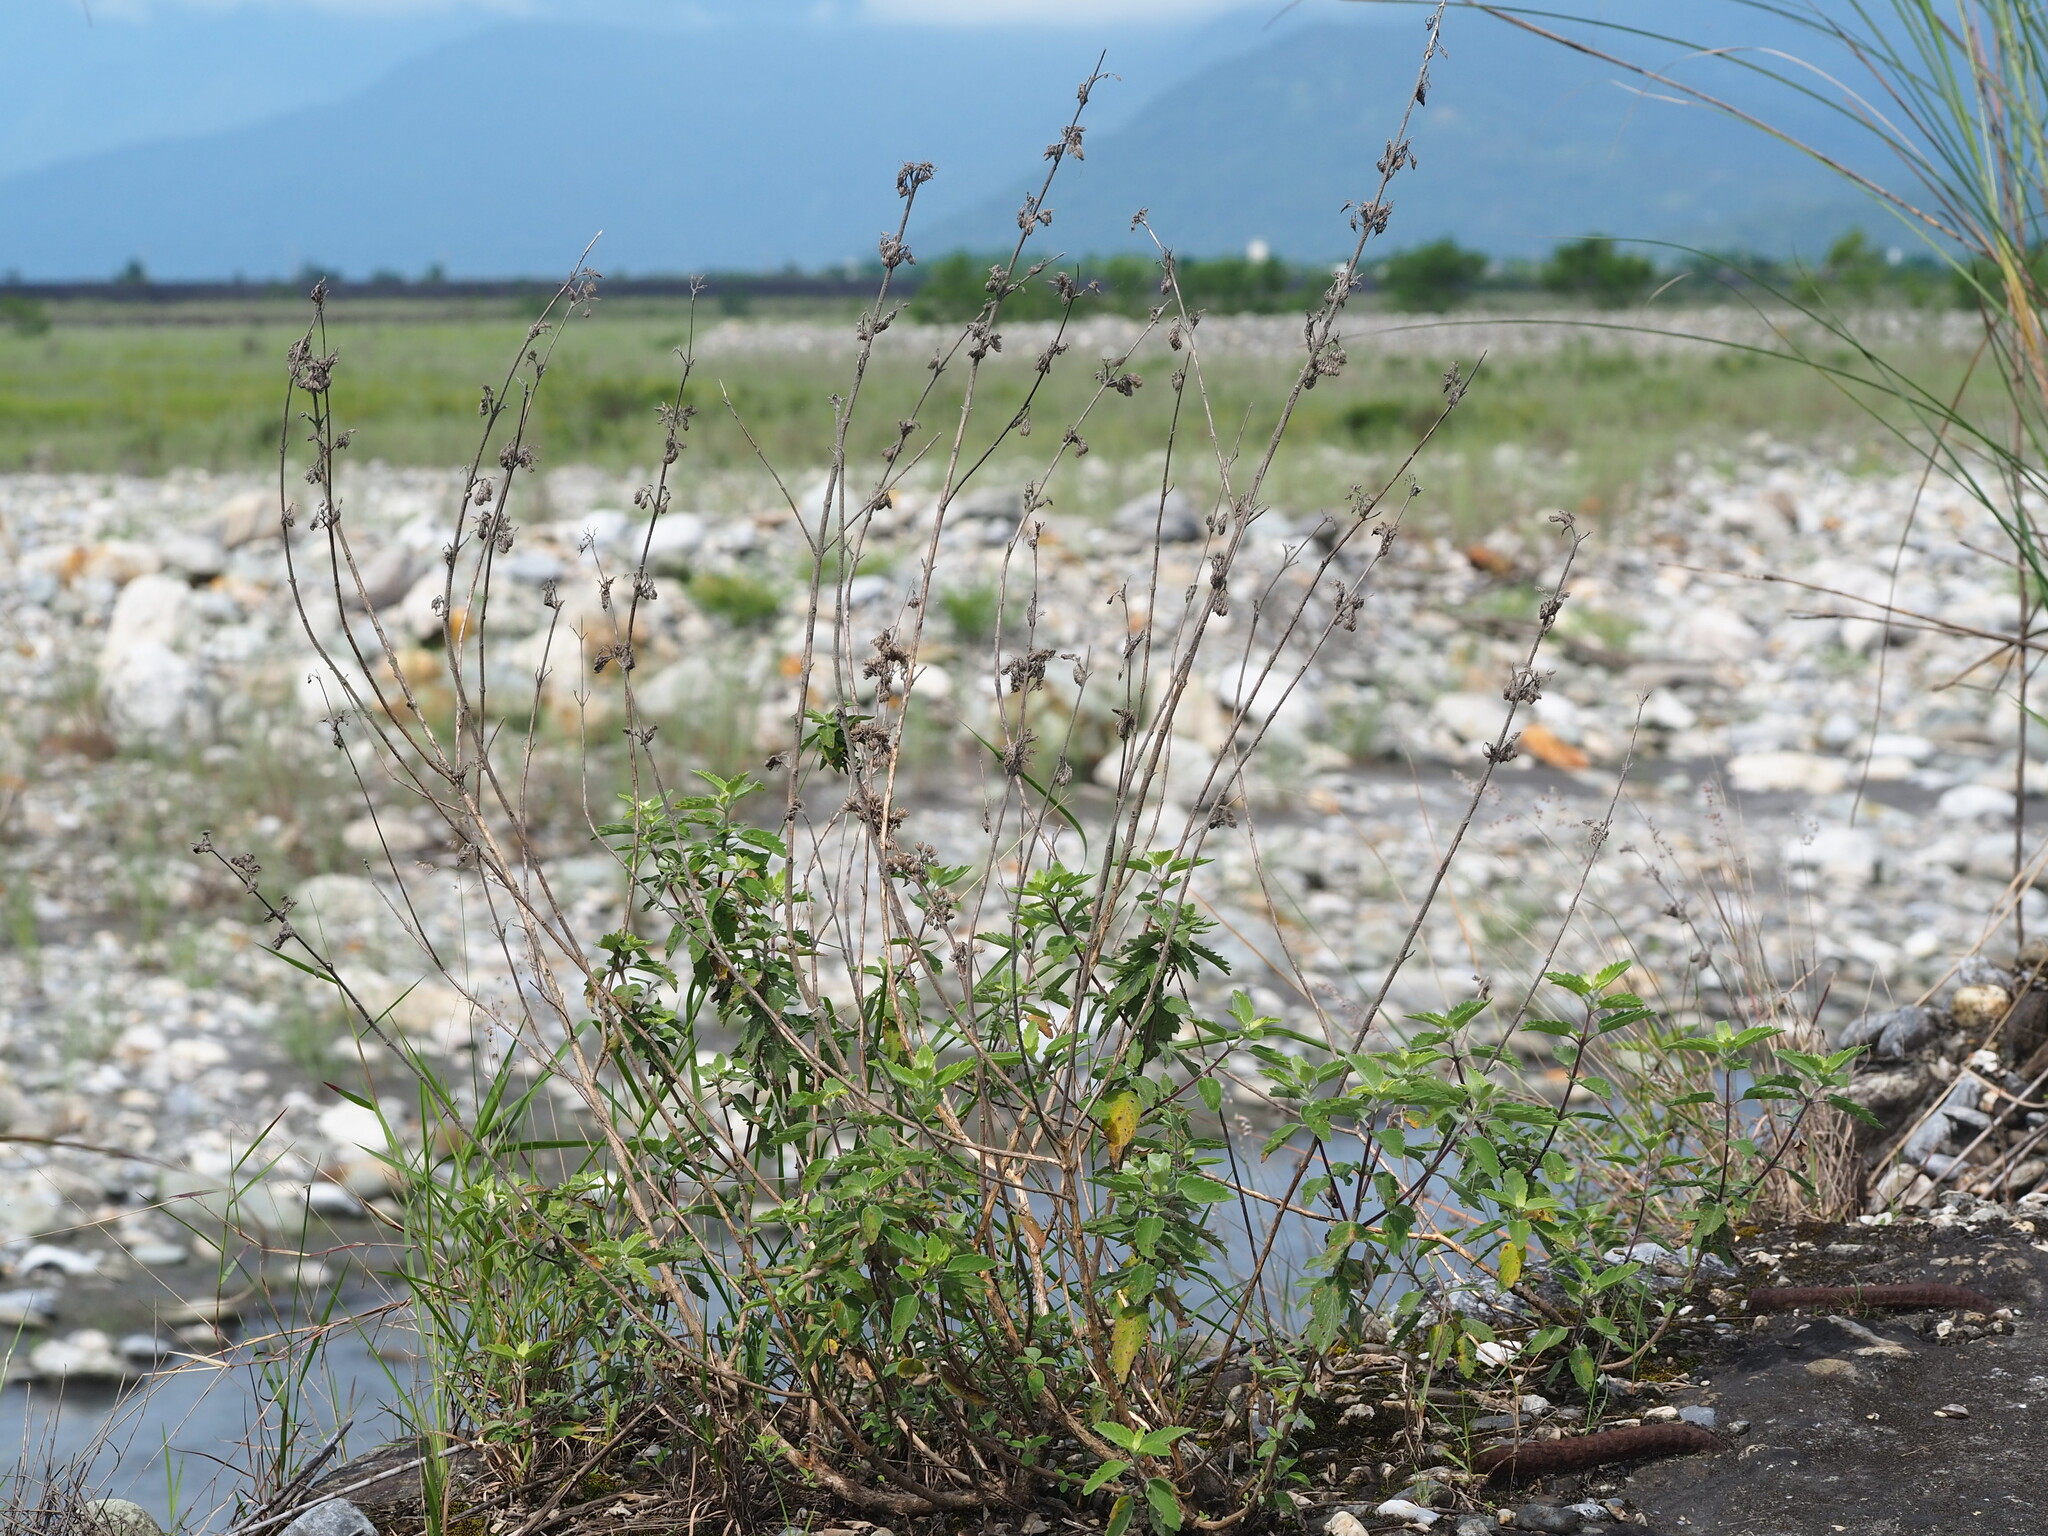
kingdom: Plantae
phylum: Tracheophyta
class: Magnoliopsida
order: Lamiales
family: Lamiaceae
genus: Caryopteris
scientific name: Caryopteris incana
